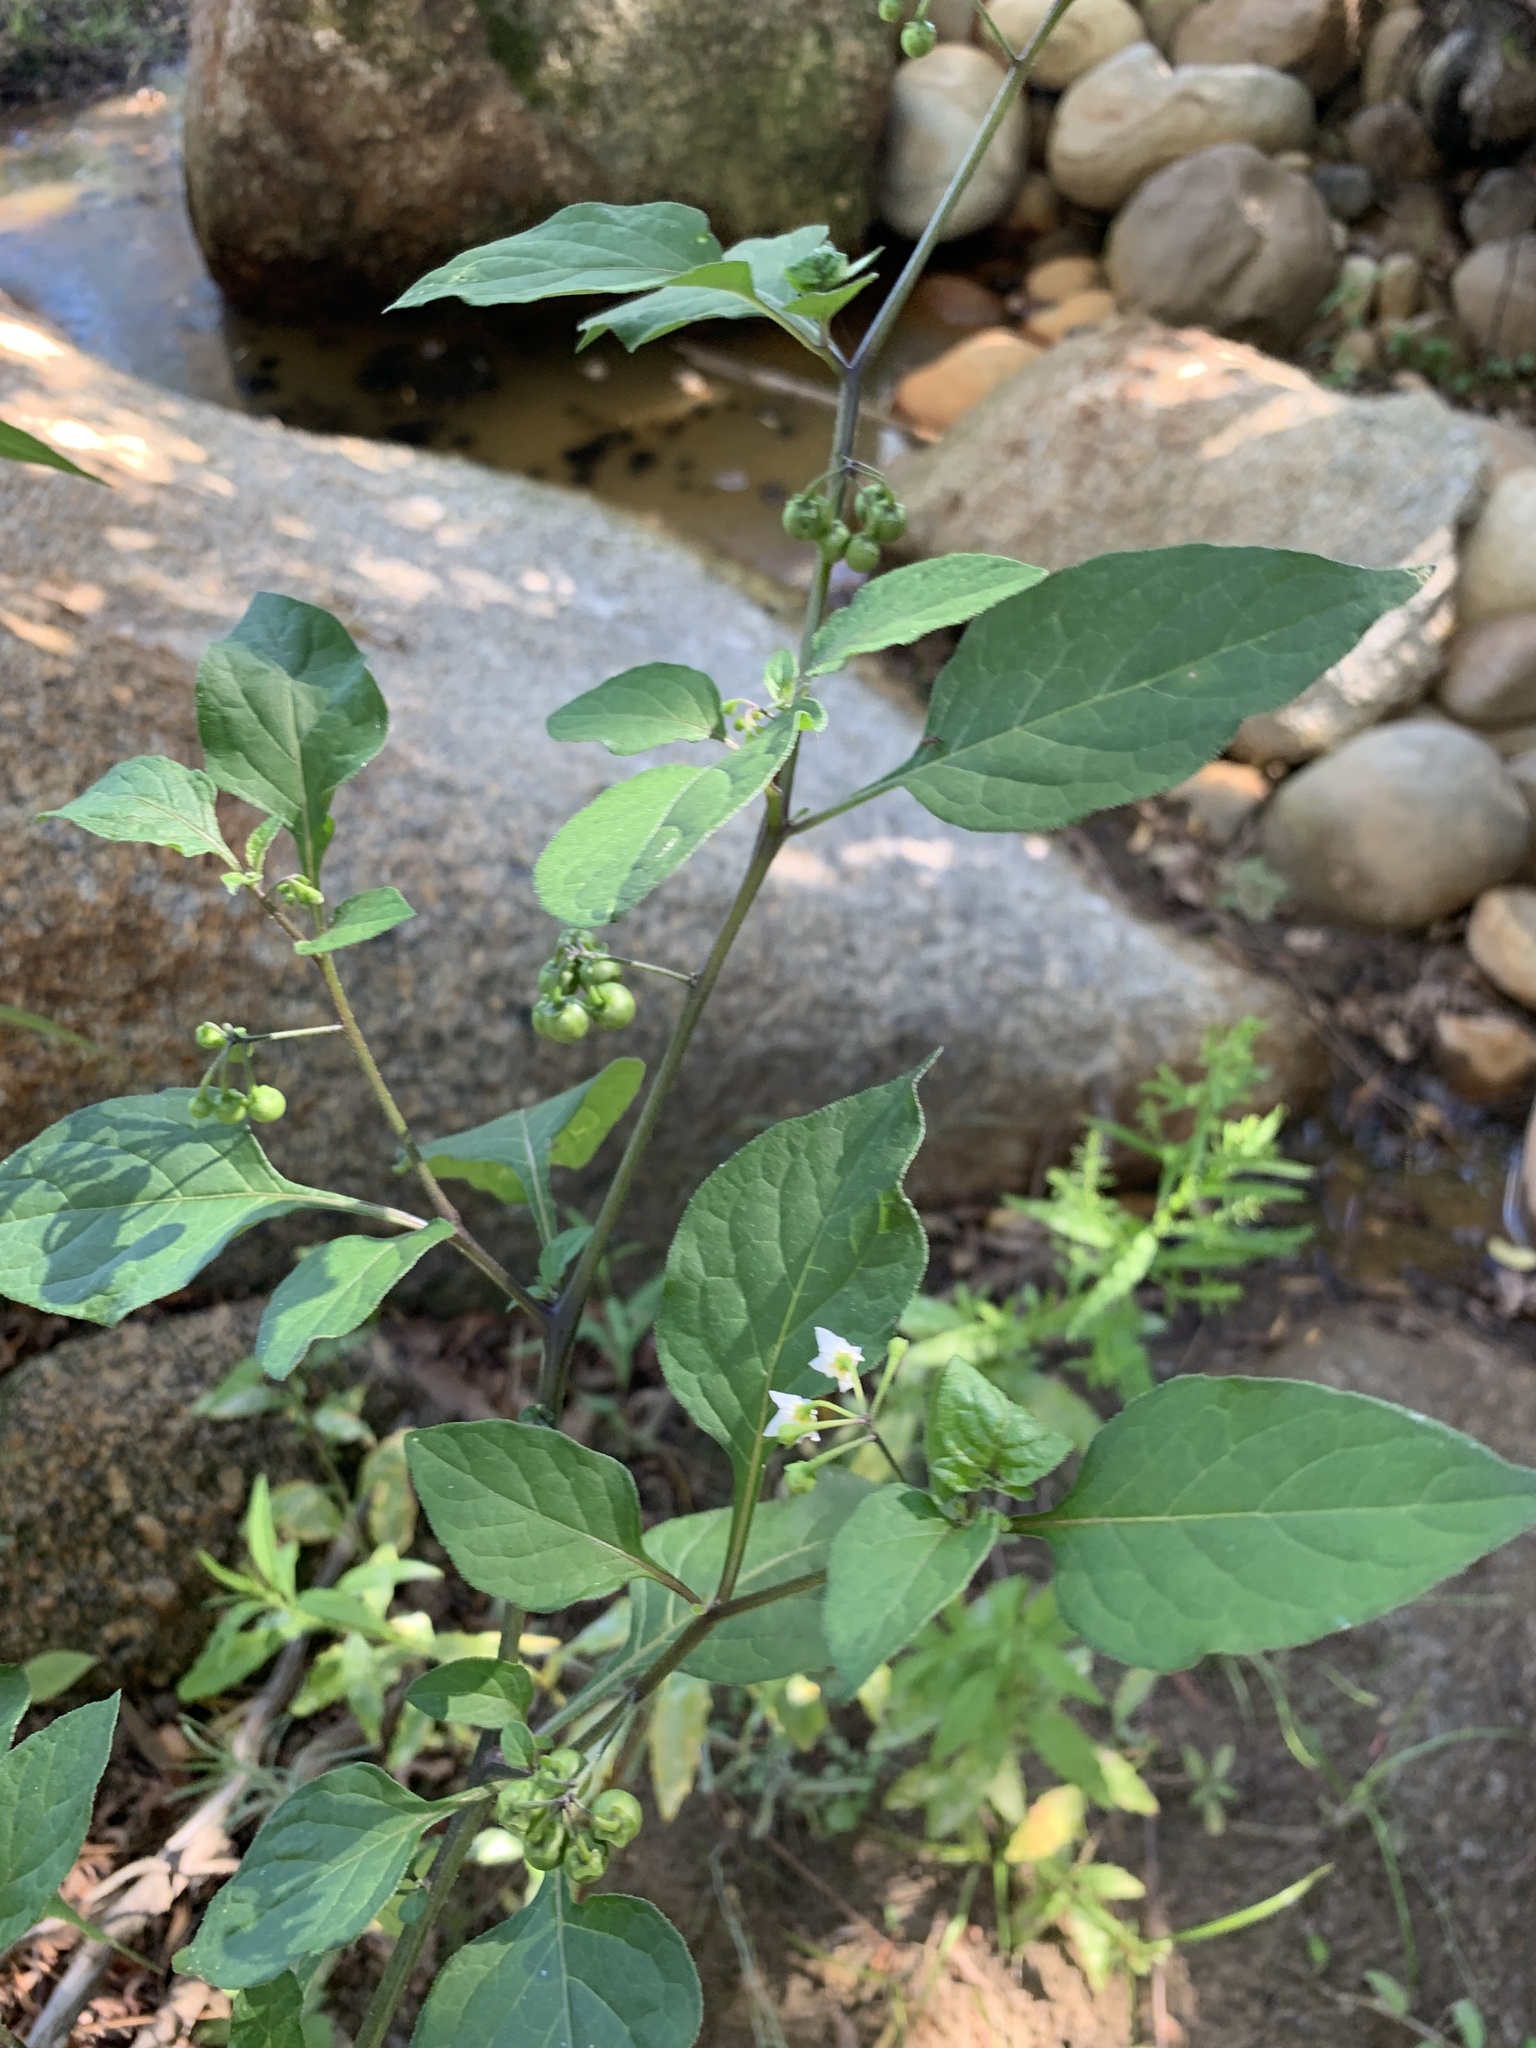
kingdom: Plantae
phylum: Tracheophyta
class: Magnoliopsida
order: Solanales
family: Solanaceae
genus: Solanum
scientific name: Solanum nigrum
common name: Black nightshade
